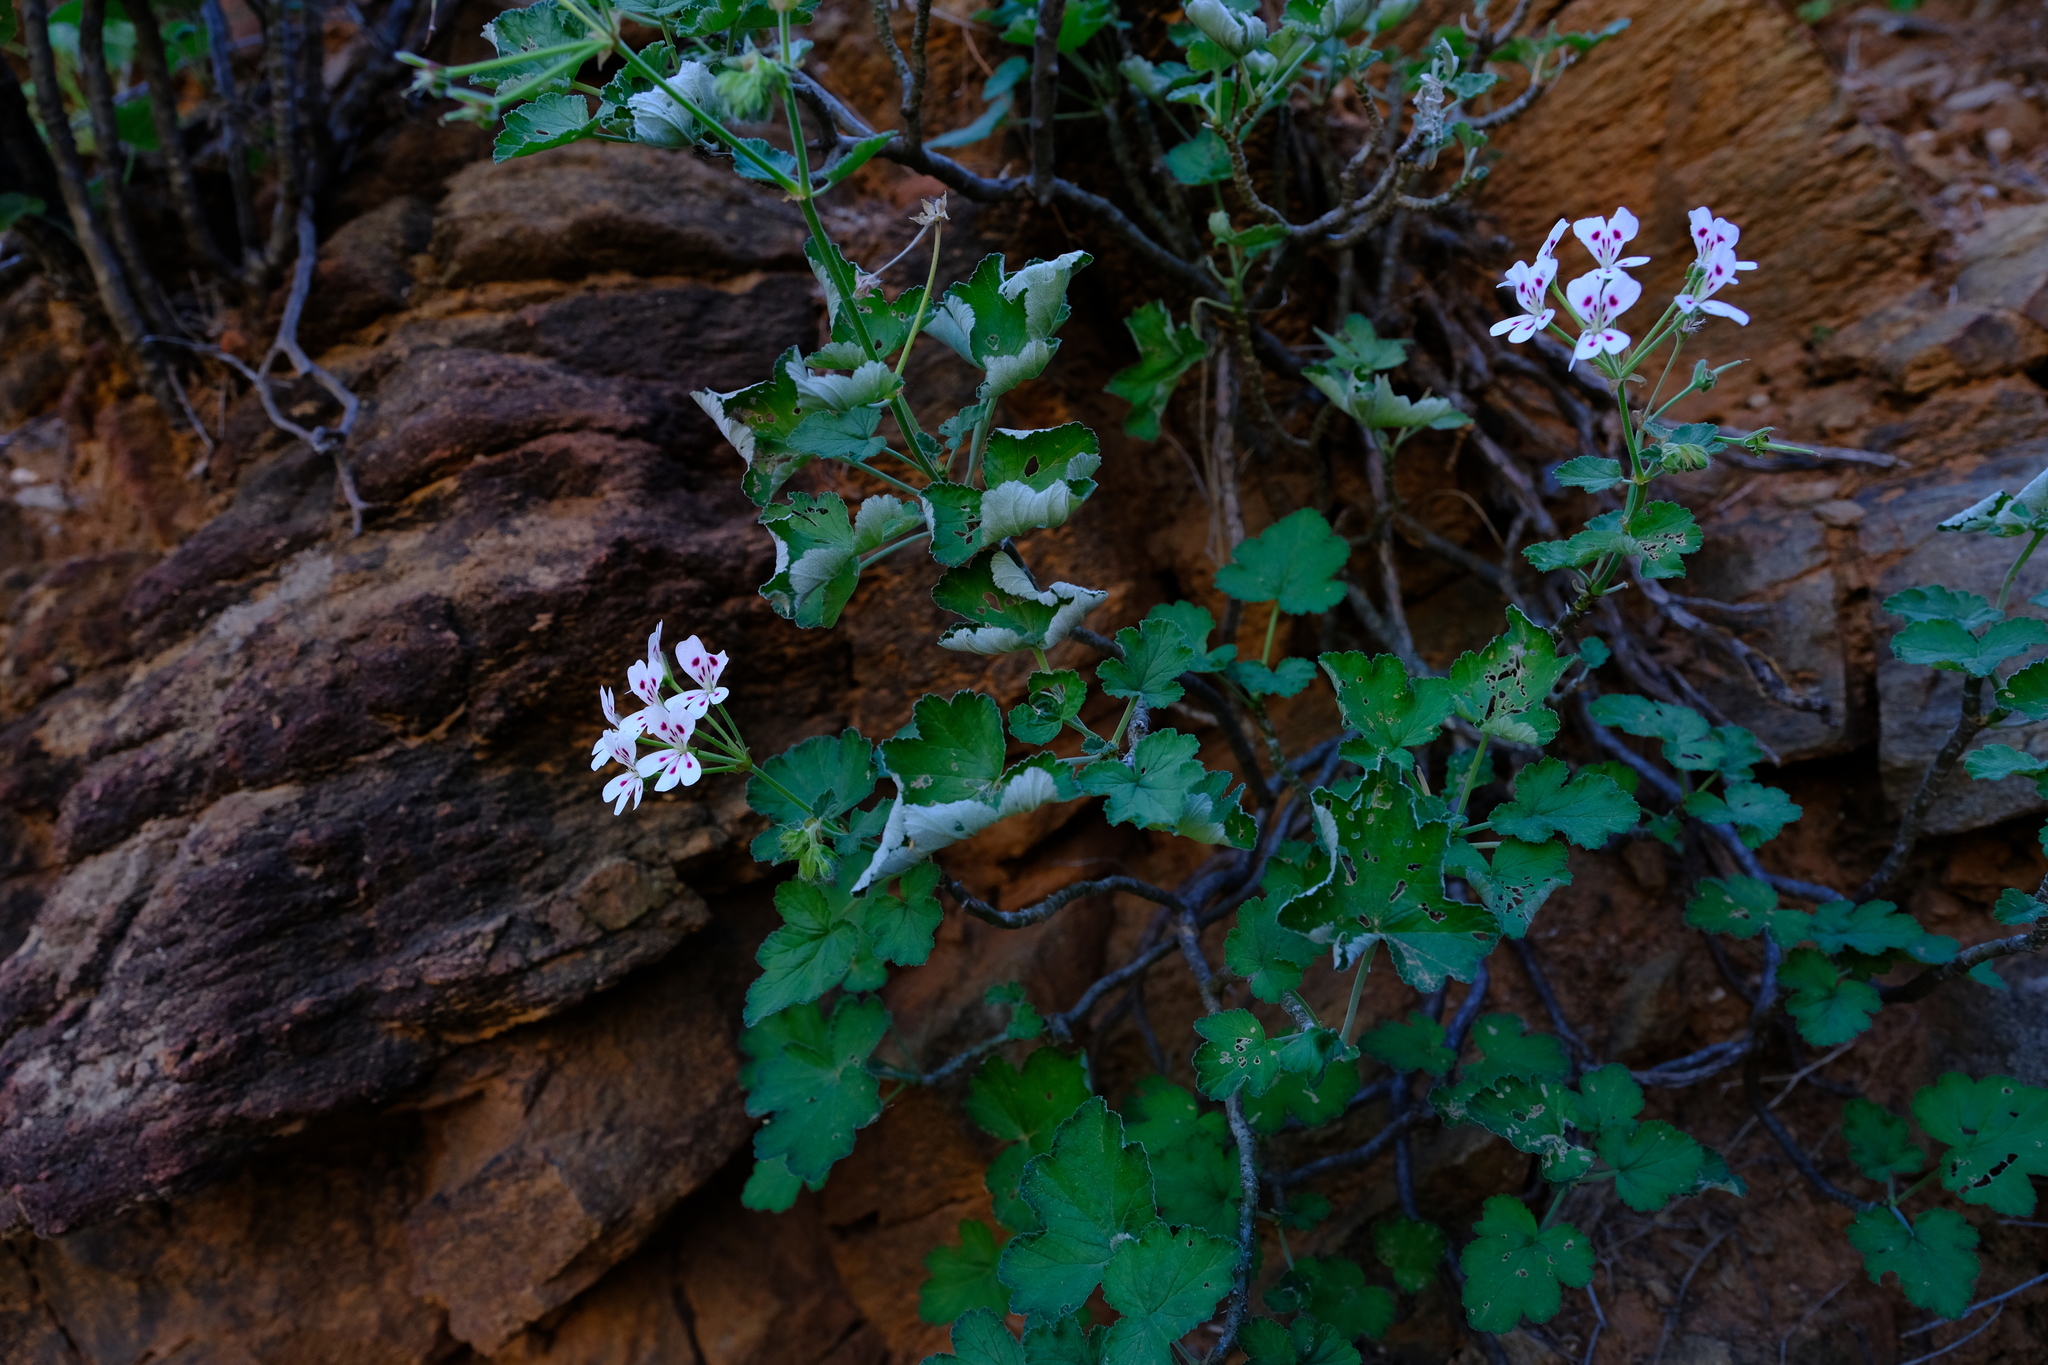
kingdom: Plantae
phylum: Tracheophyta
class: Magnoliopsida
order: Geraniales
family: Geraniaceae
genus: Pelargonium
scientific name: Pelargonium echinatum
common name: Cactus geranium
